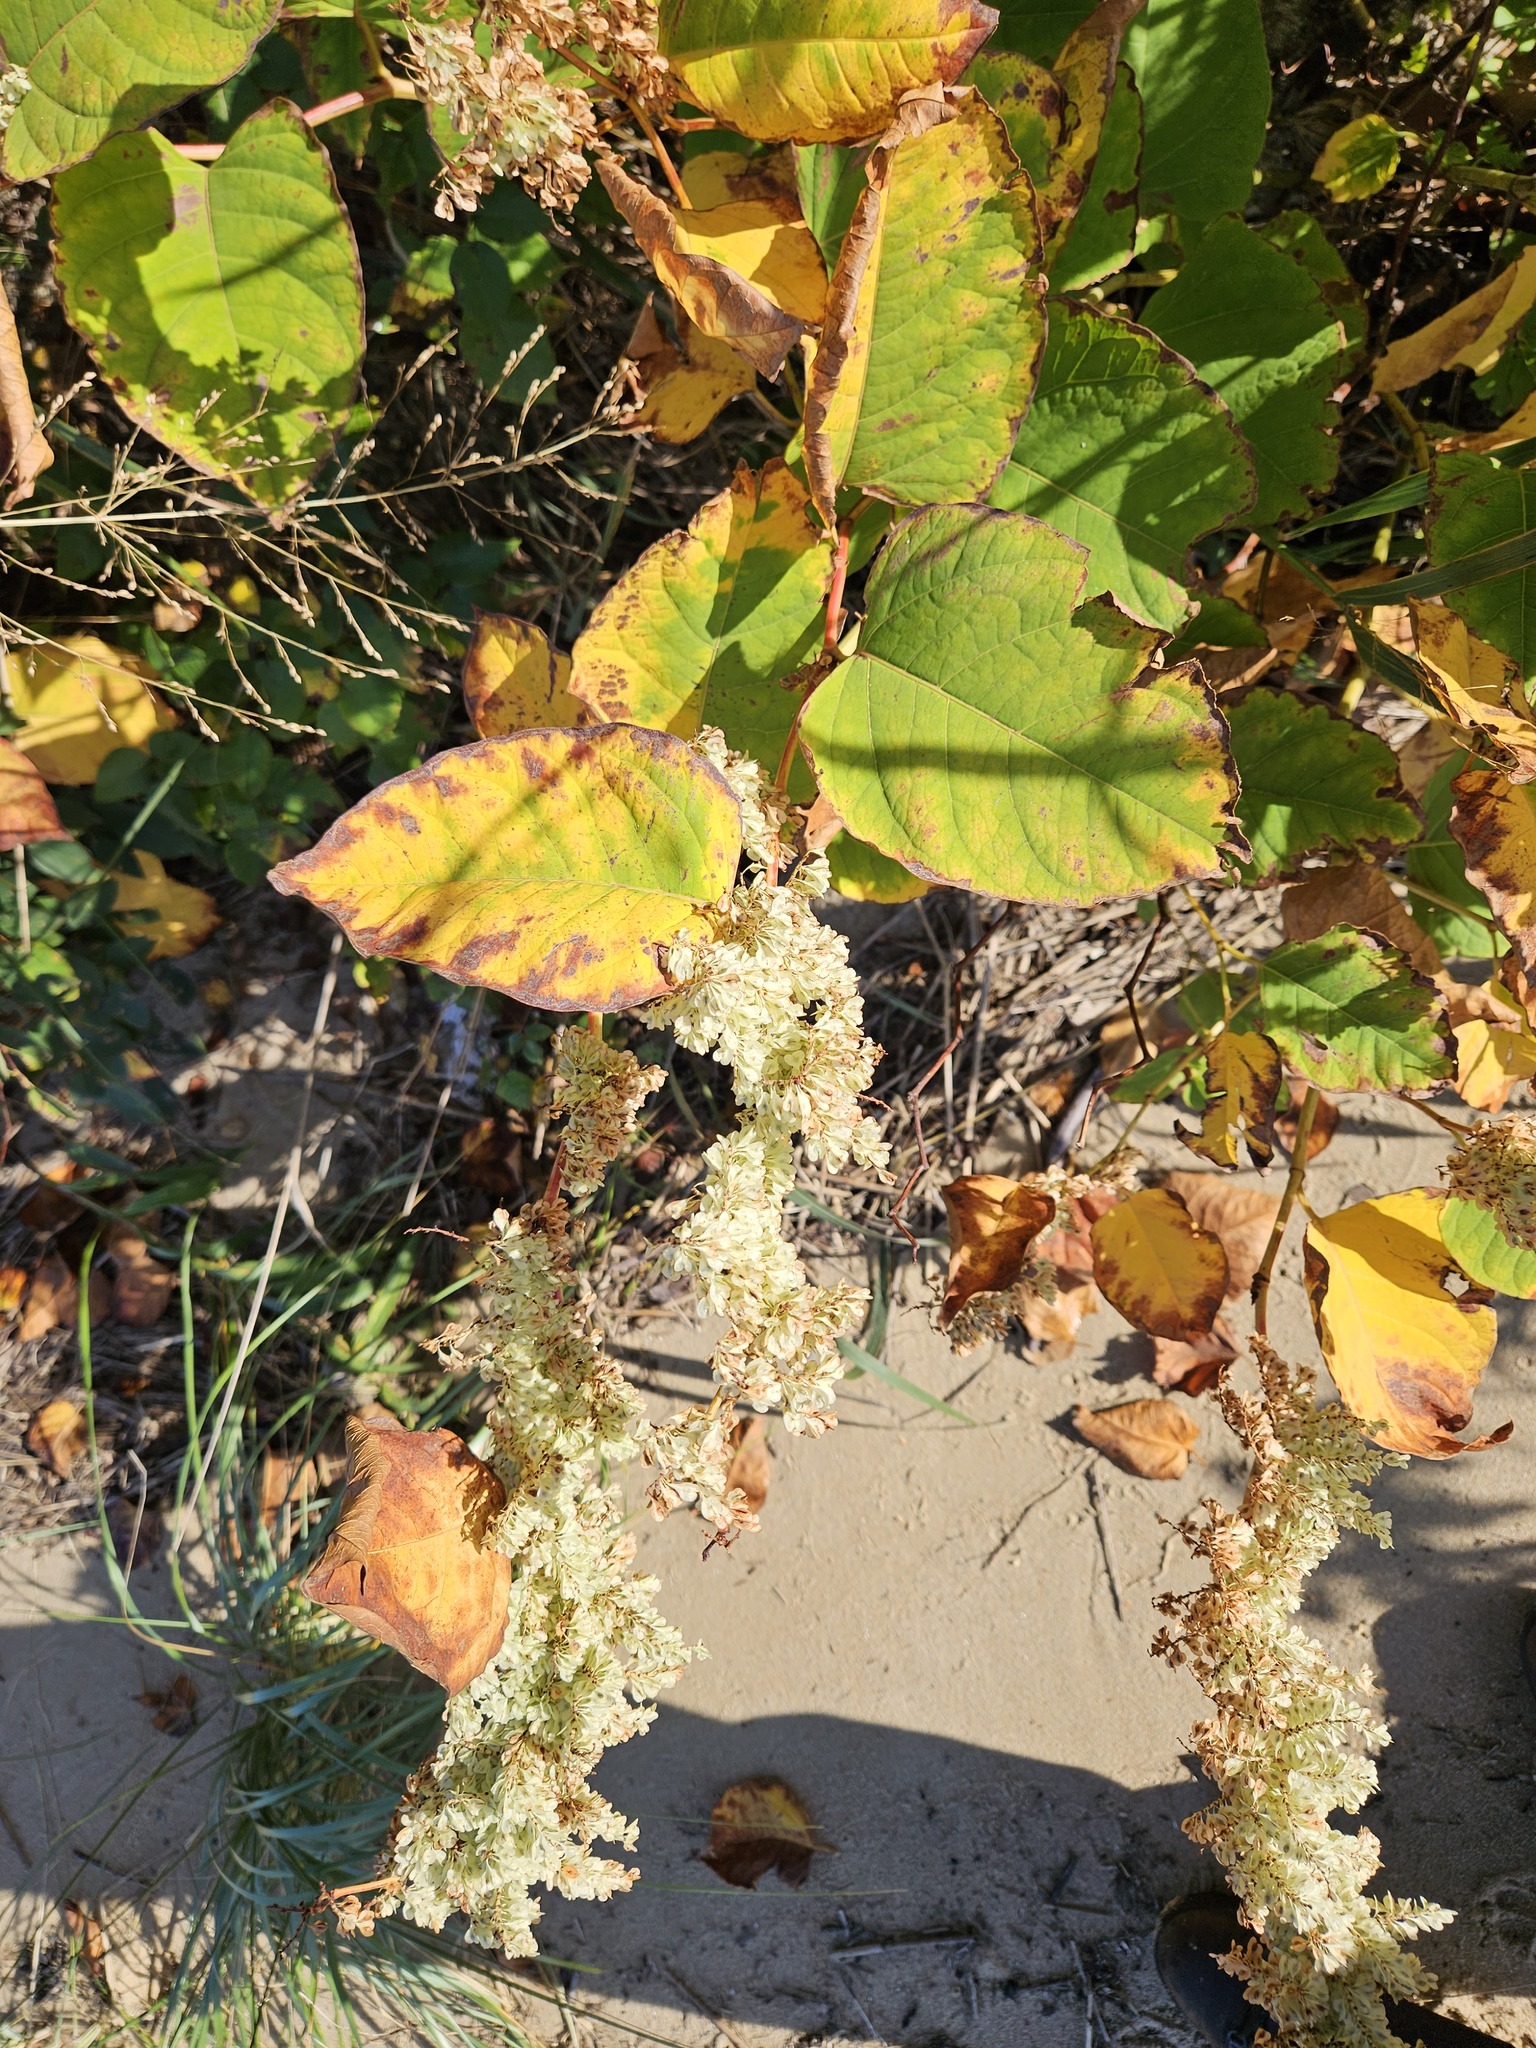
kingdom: Plantae
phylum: Tracheophyta
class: Magnoliopsida
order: Caryophyllales
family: Polygonaceae
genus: Reynoutria
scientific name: Reynoutria japonica
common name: Japanese knotweed
